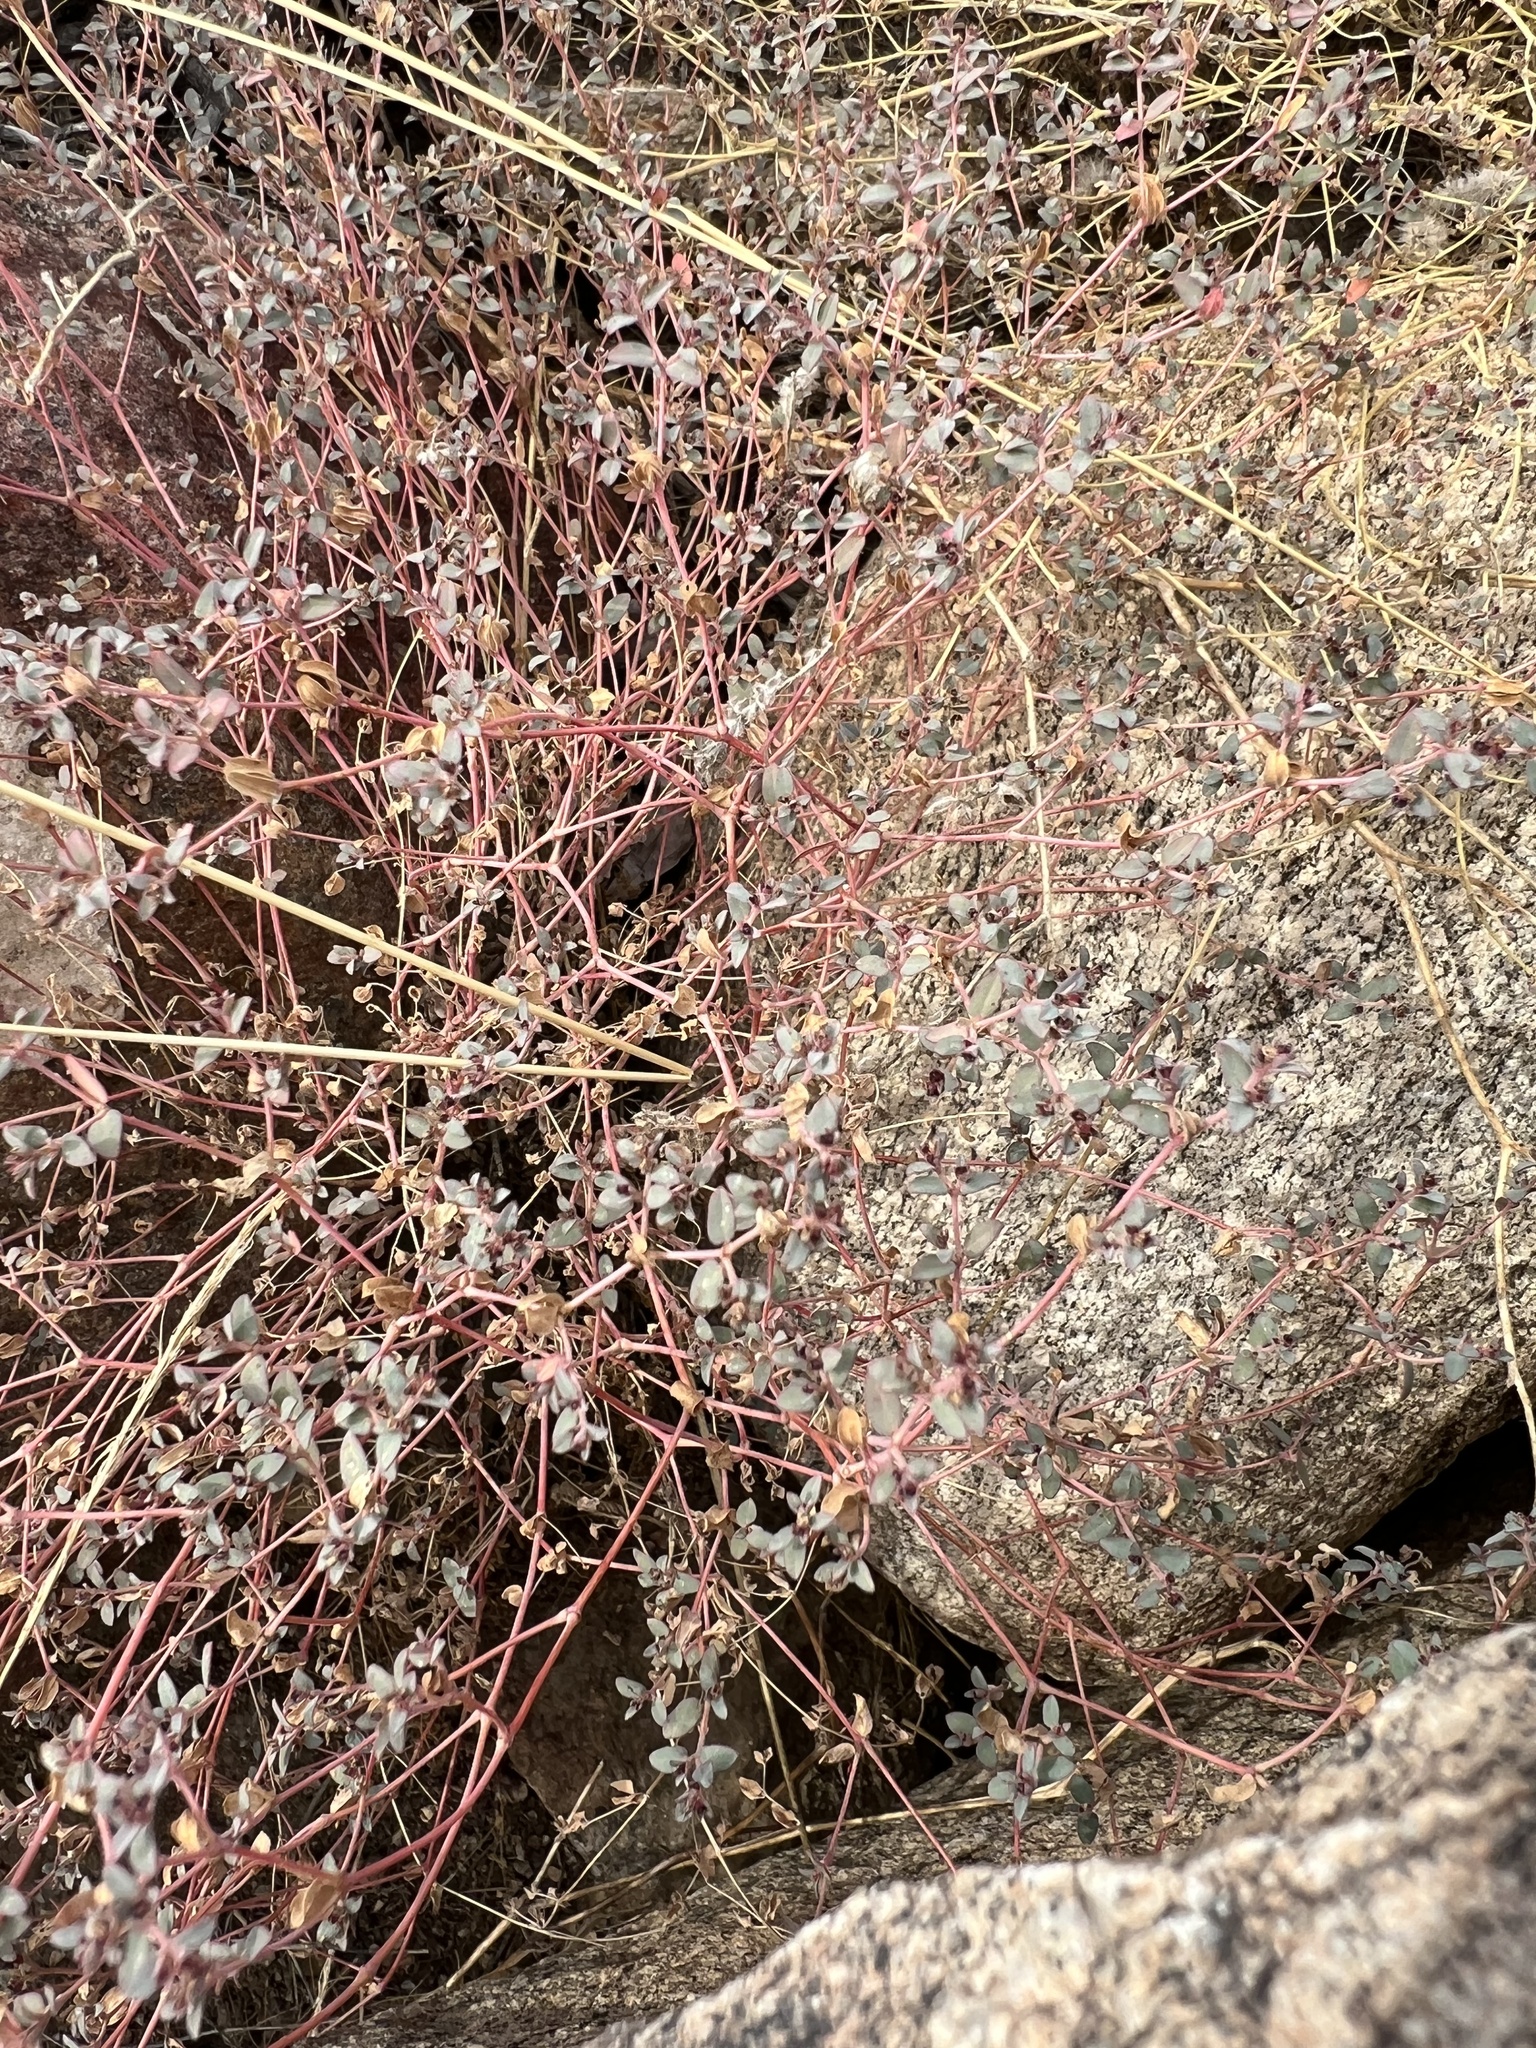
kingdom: Plantae
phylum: Tracheophyta
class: Magnoliopsida
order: Malpighiales
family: Euphorbiaceae
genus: Euphorbia
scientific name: Euphorbia polycarpa
